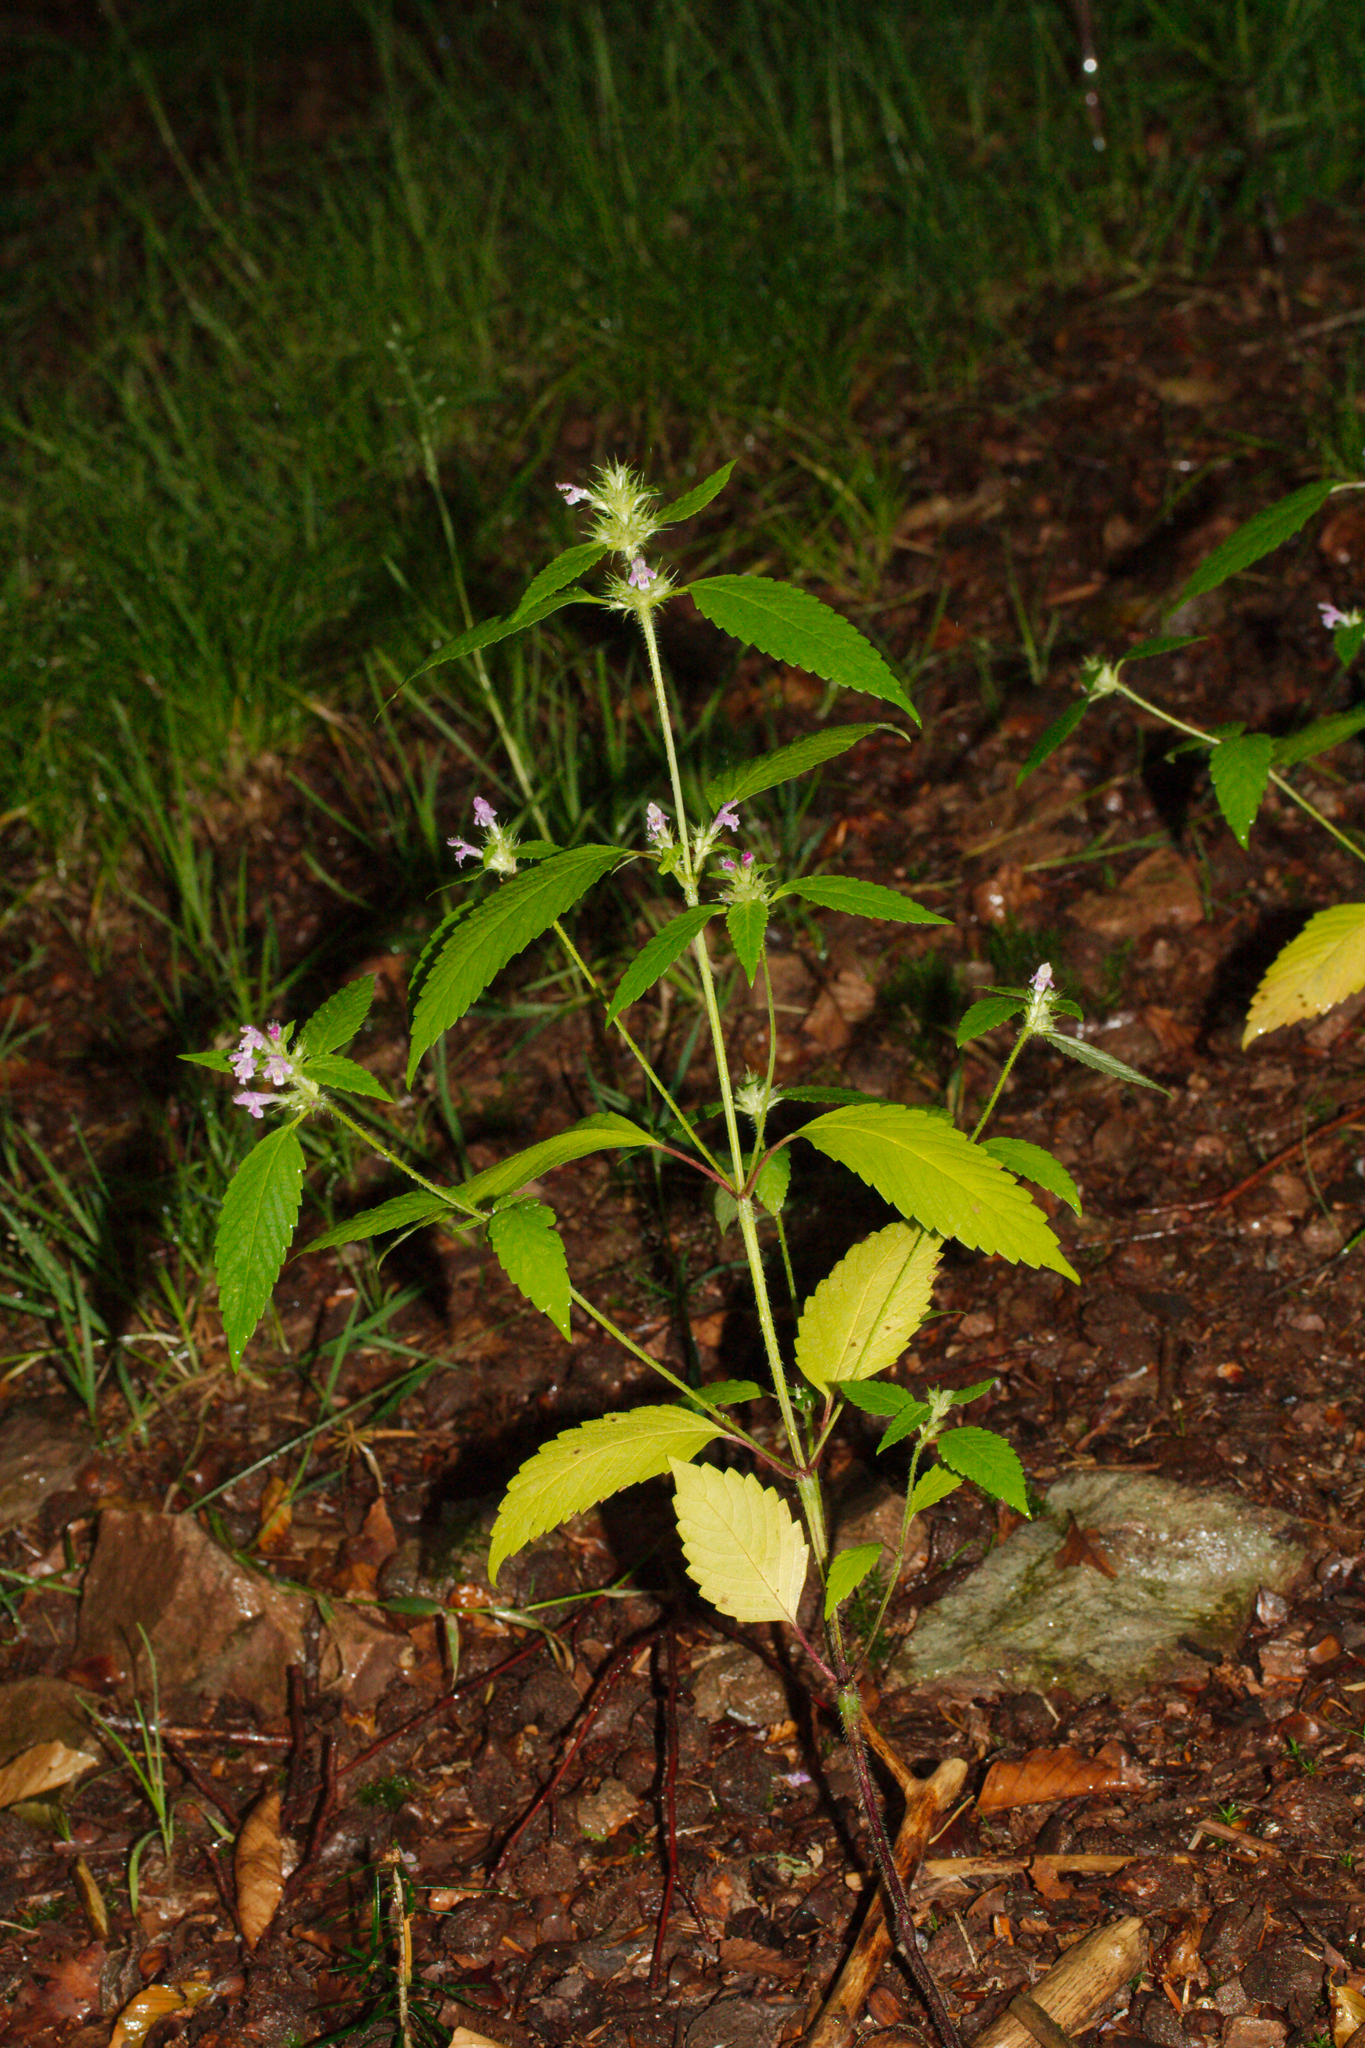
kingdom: Plantae
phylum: Tracheophyta
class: Magnoliopsida
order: Lamiales
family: Lamiaceae
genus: Galeopsis
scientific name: Galeopsis tetrahit
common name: Common hemp-nettle
